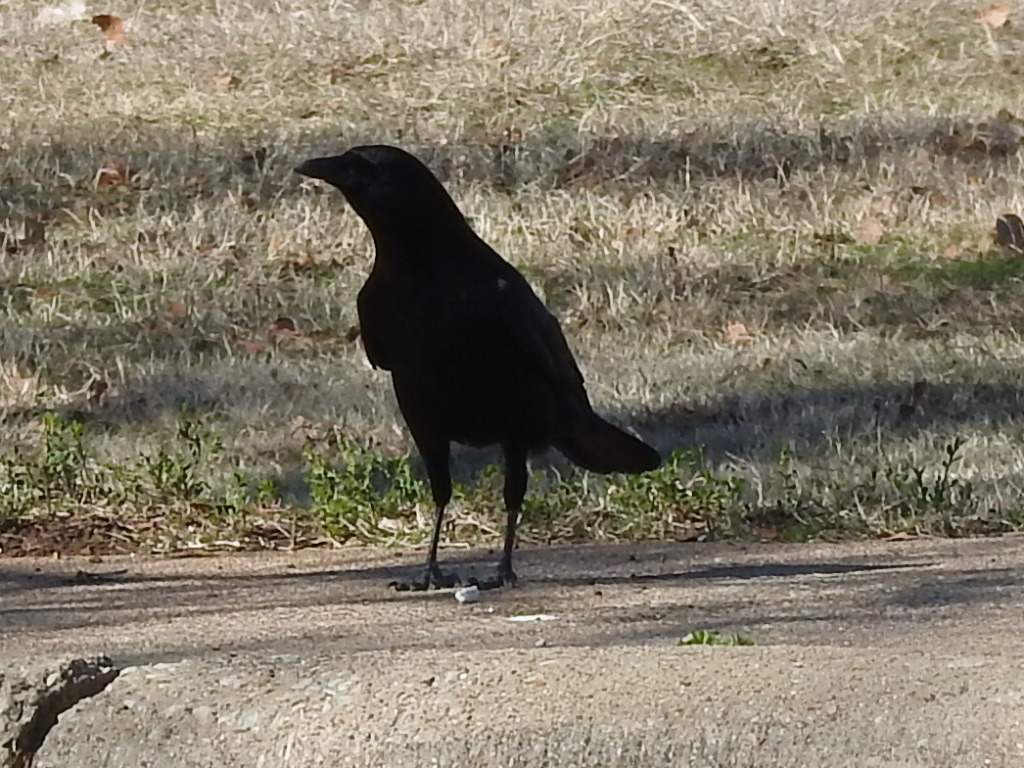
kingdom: Animalia
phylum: Chordata
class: Aves
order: Passeriformes
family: Corvidae
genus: Corvus
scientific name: Corvus brachyrhynchos
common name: American crow
